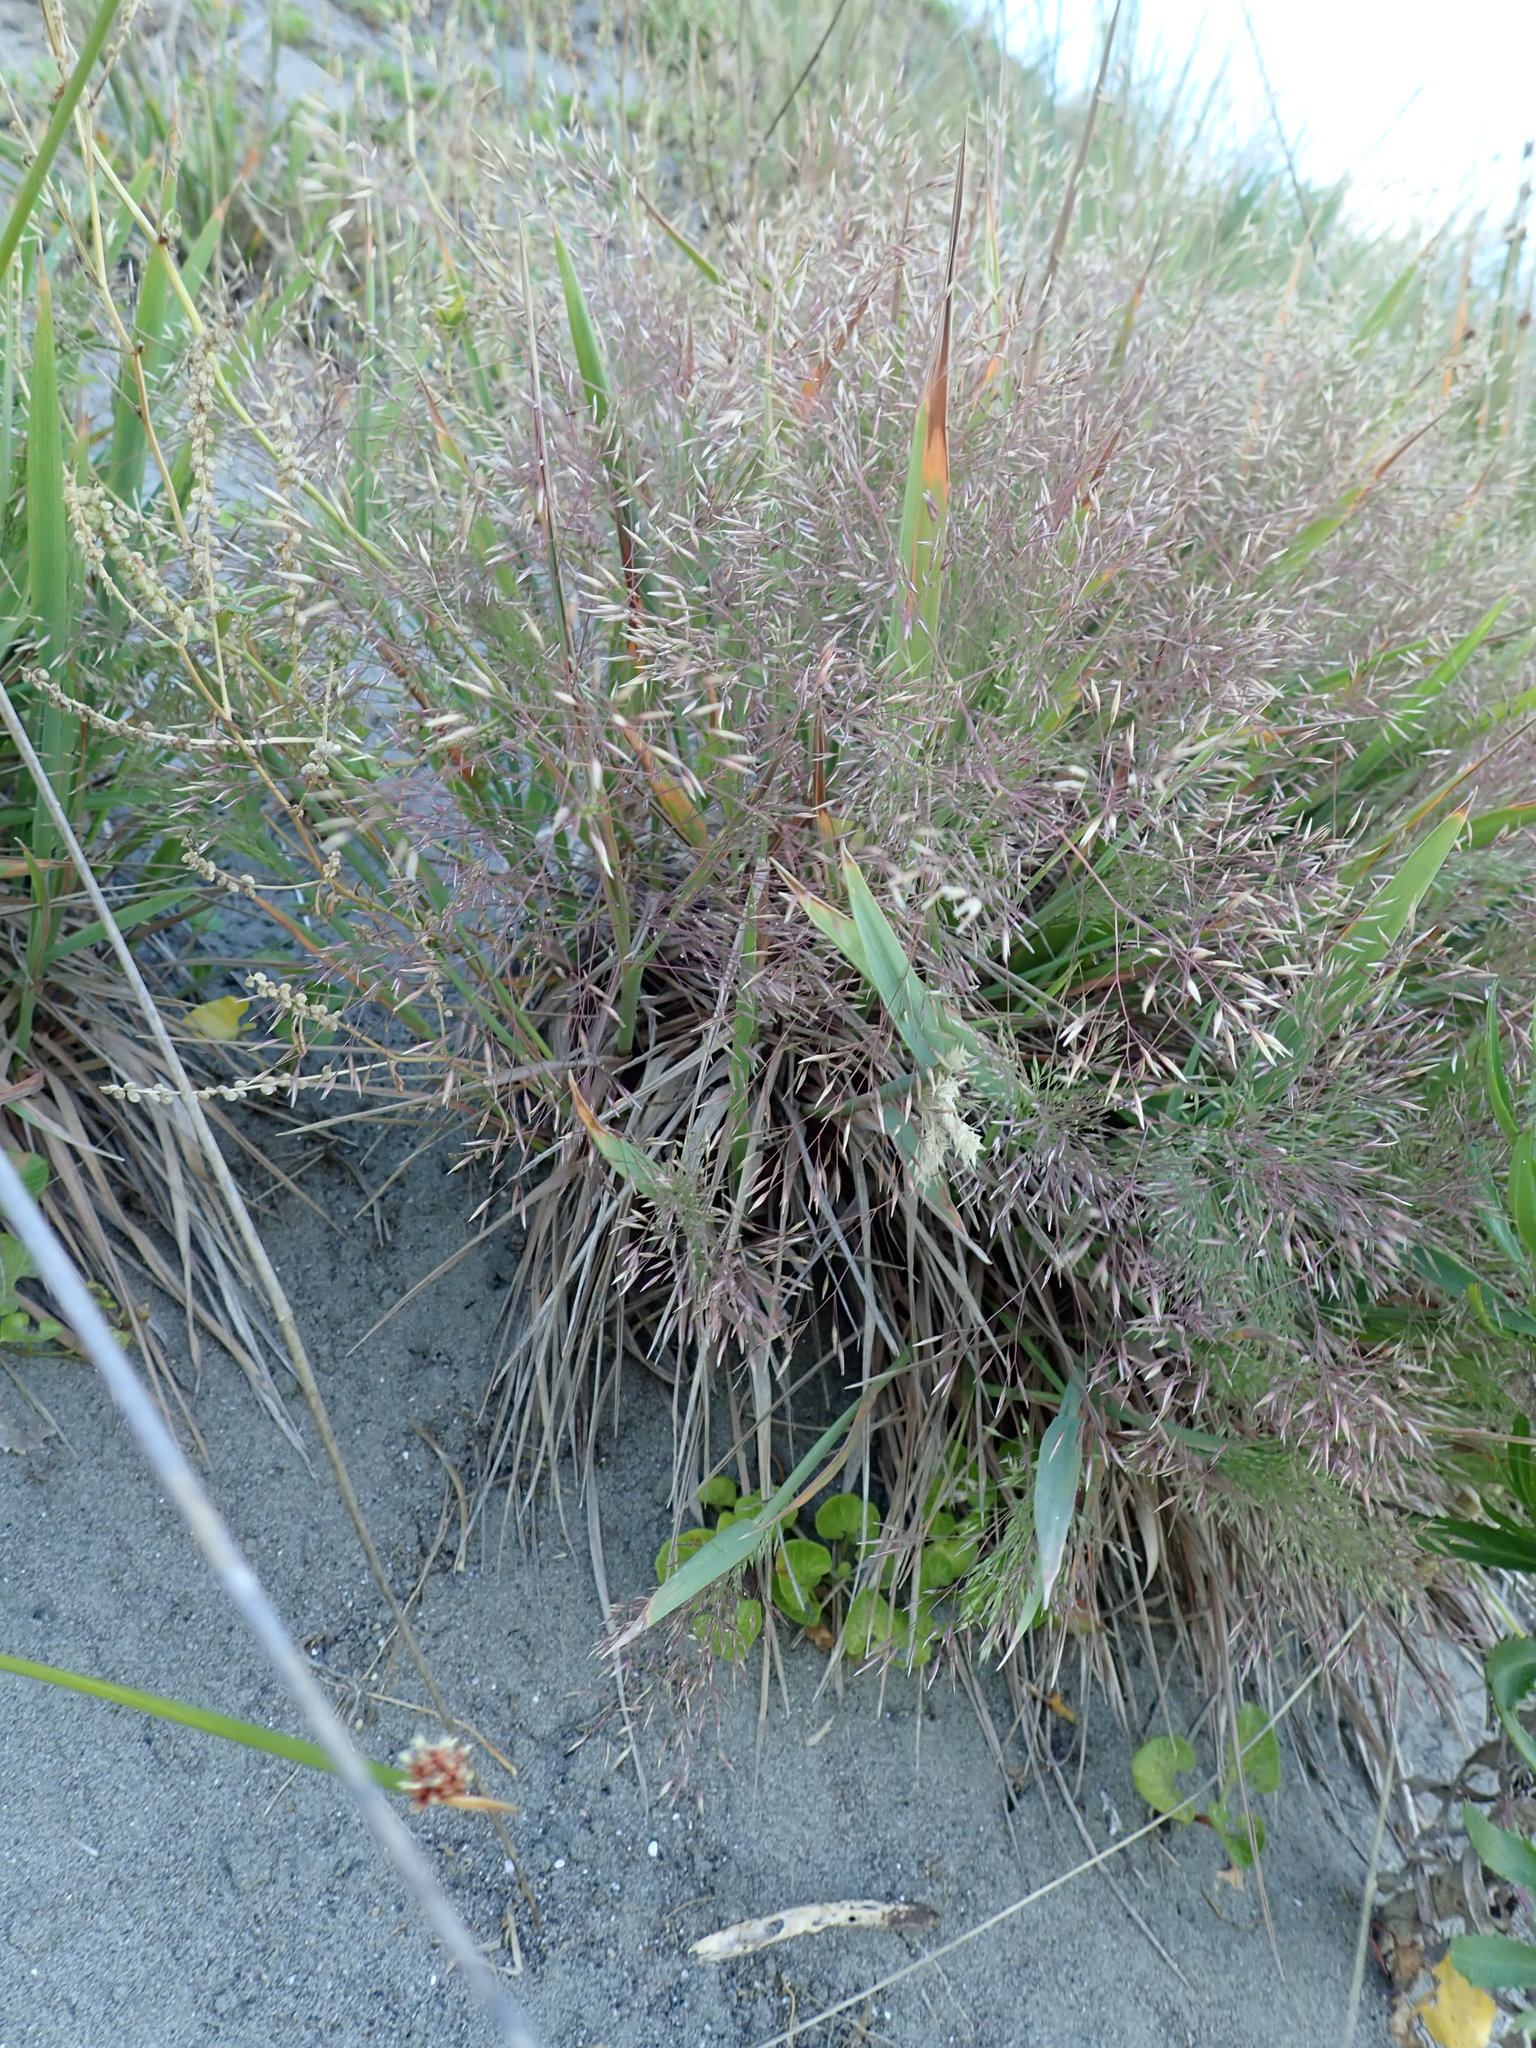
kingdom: Plantae
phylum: Tracheophyta
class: Liliopsida
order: Poales
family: Poaceae
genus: Lachnagrostis
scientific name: Lachnagrostis billardierei
